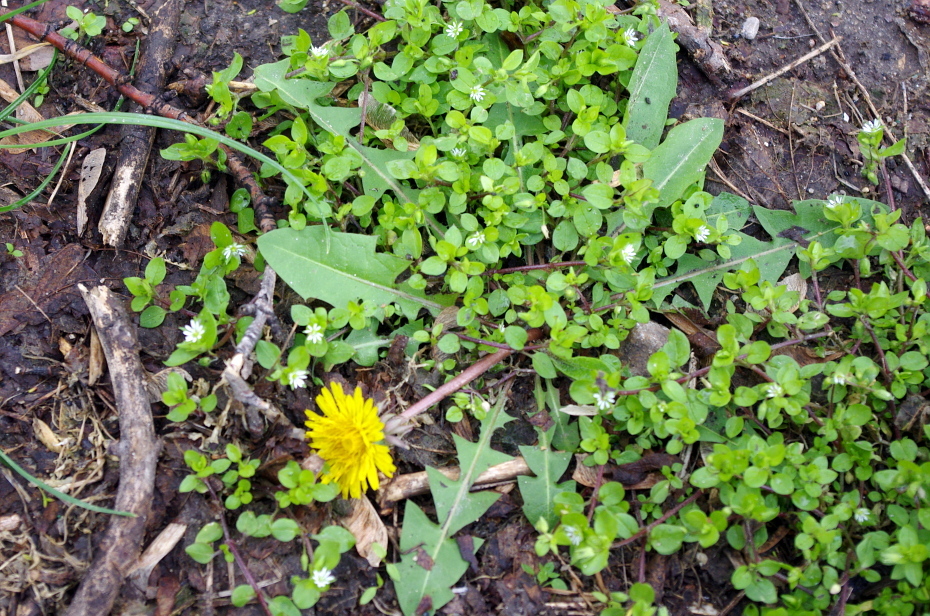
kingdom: Plantae
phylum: Tracheophyta
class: Magnoliopsida
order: Asterales
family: Asteraceae
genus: Taraxacum
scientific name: Taraxacum officinale
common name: Common dandelion
